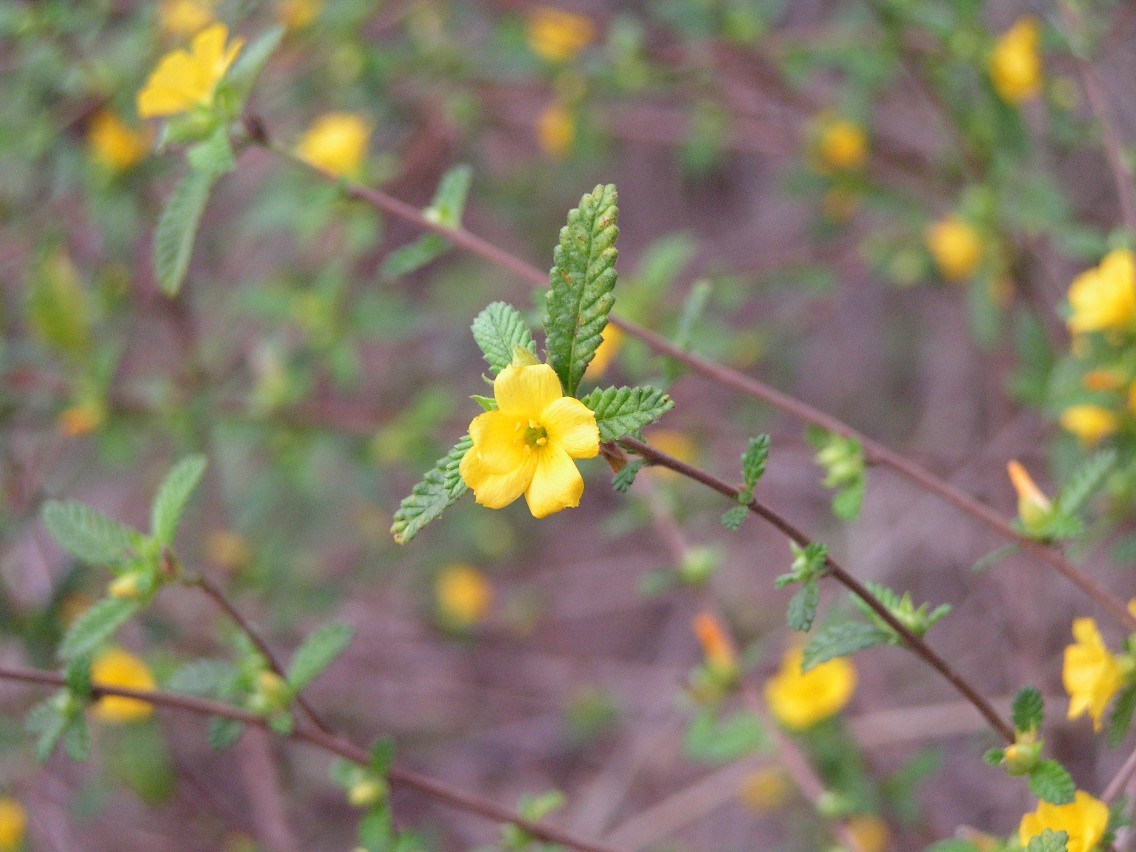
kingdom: Plantae
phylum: Tracheophyta
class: Magnoliopsida
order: Malpighiales
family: Turneraceae
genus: Turnera
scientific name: Turnera diffusa
